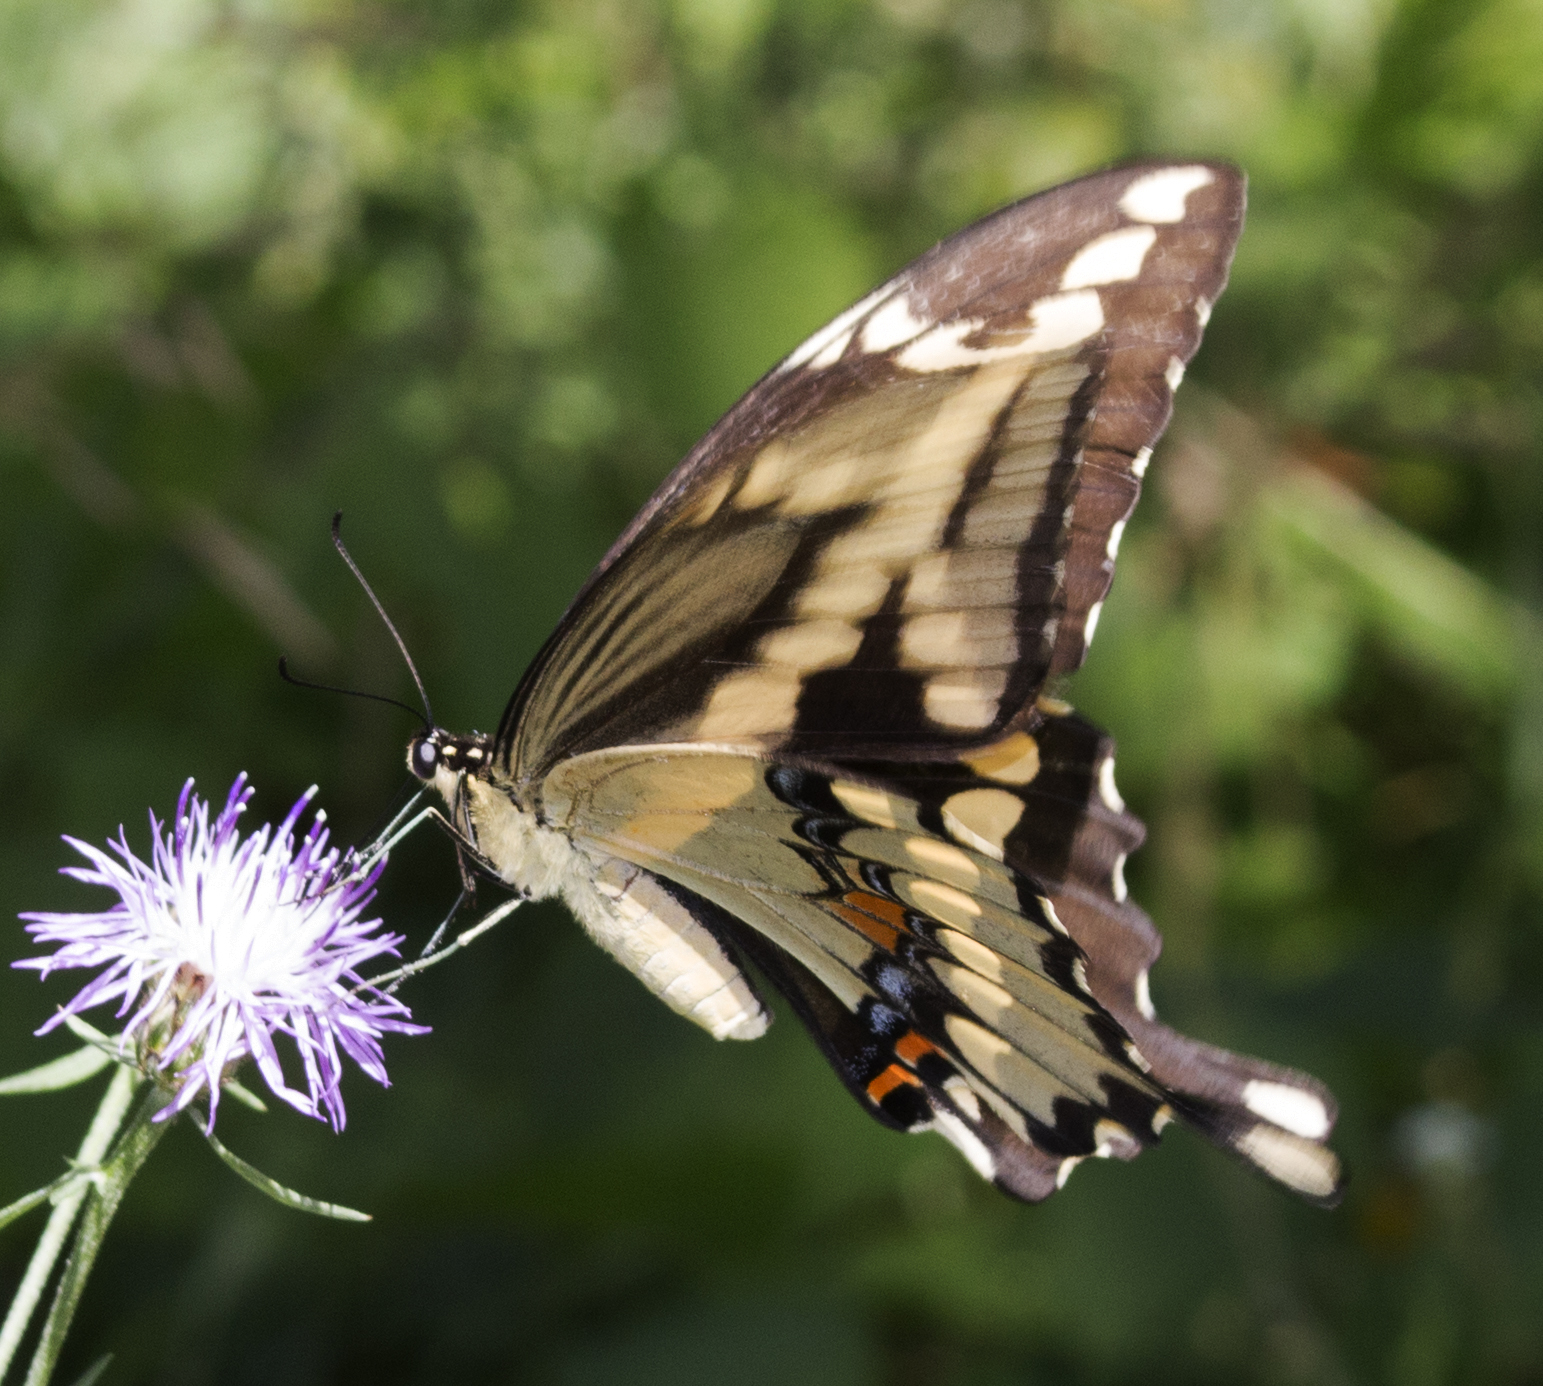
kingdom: Animalia
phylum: Arthropoda
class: Insecta
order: Lepidoptera
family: Papilionidae
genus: Papilio
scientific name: Papilio cresphontes
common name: Giant swallowtail
